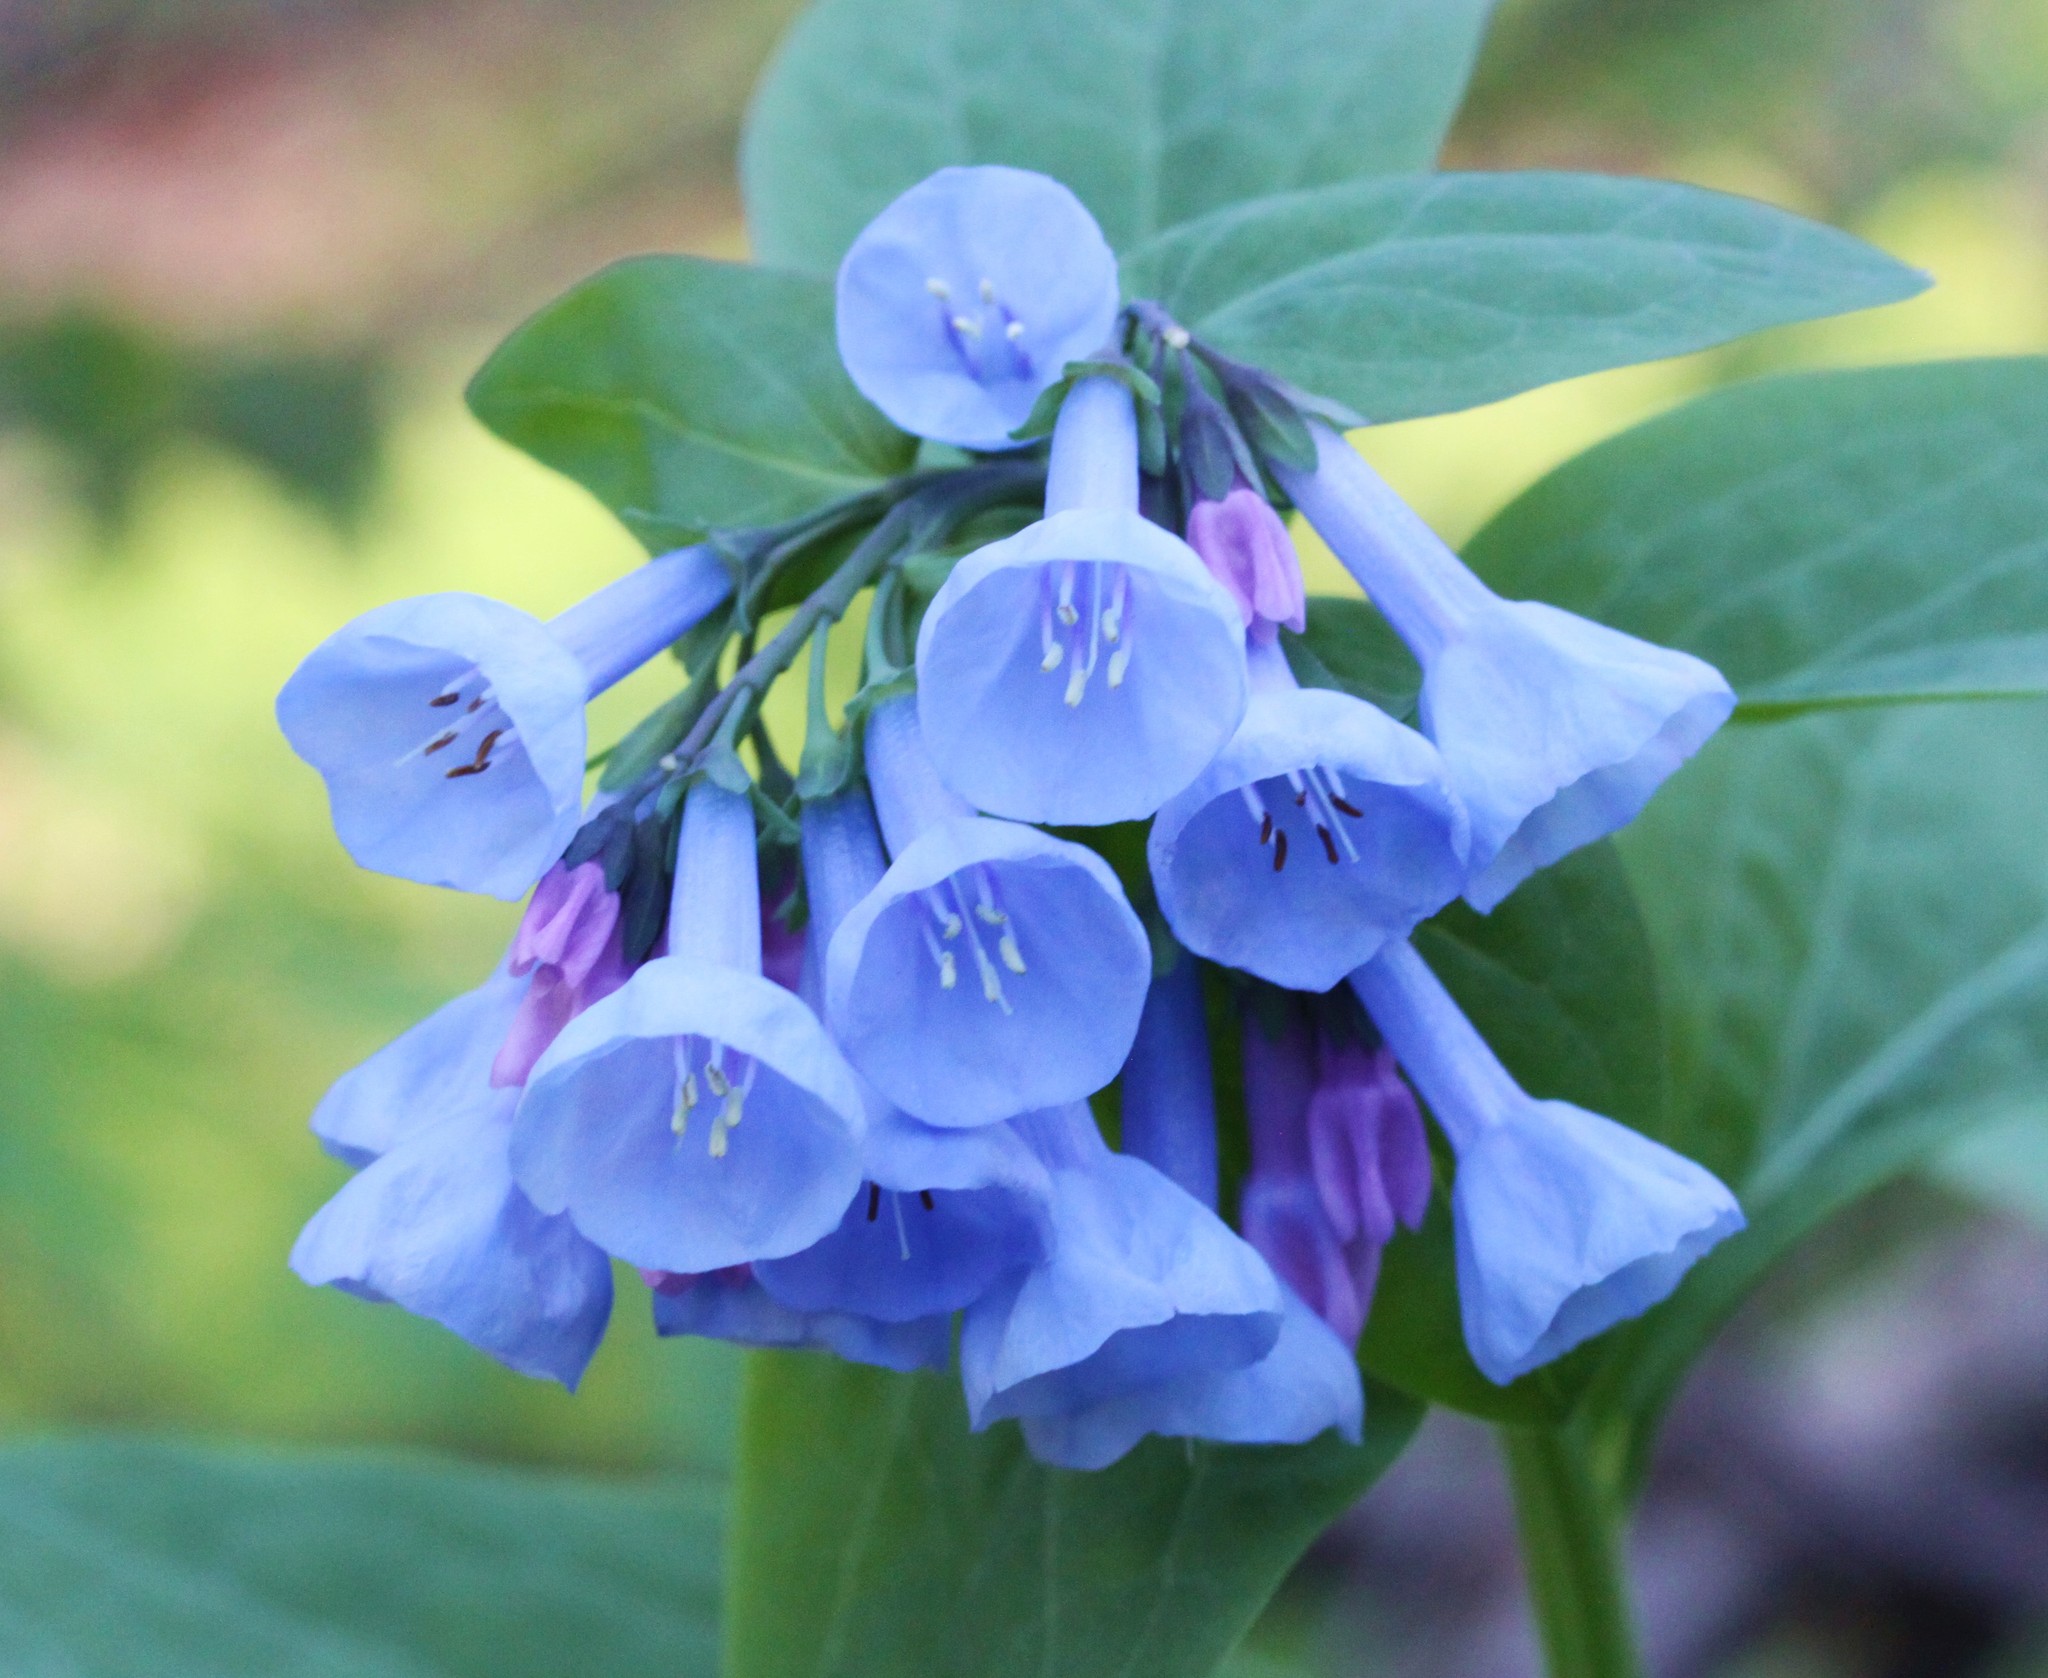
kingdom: Plantae
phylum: Tracheophyta
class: Magnoliopsida
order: Boraginales
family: Boraginaceae
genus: Mertensia
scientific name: Mertensia virginica
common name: Virginia bluebells
